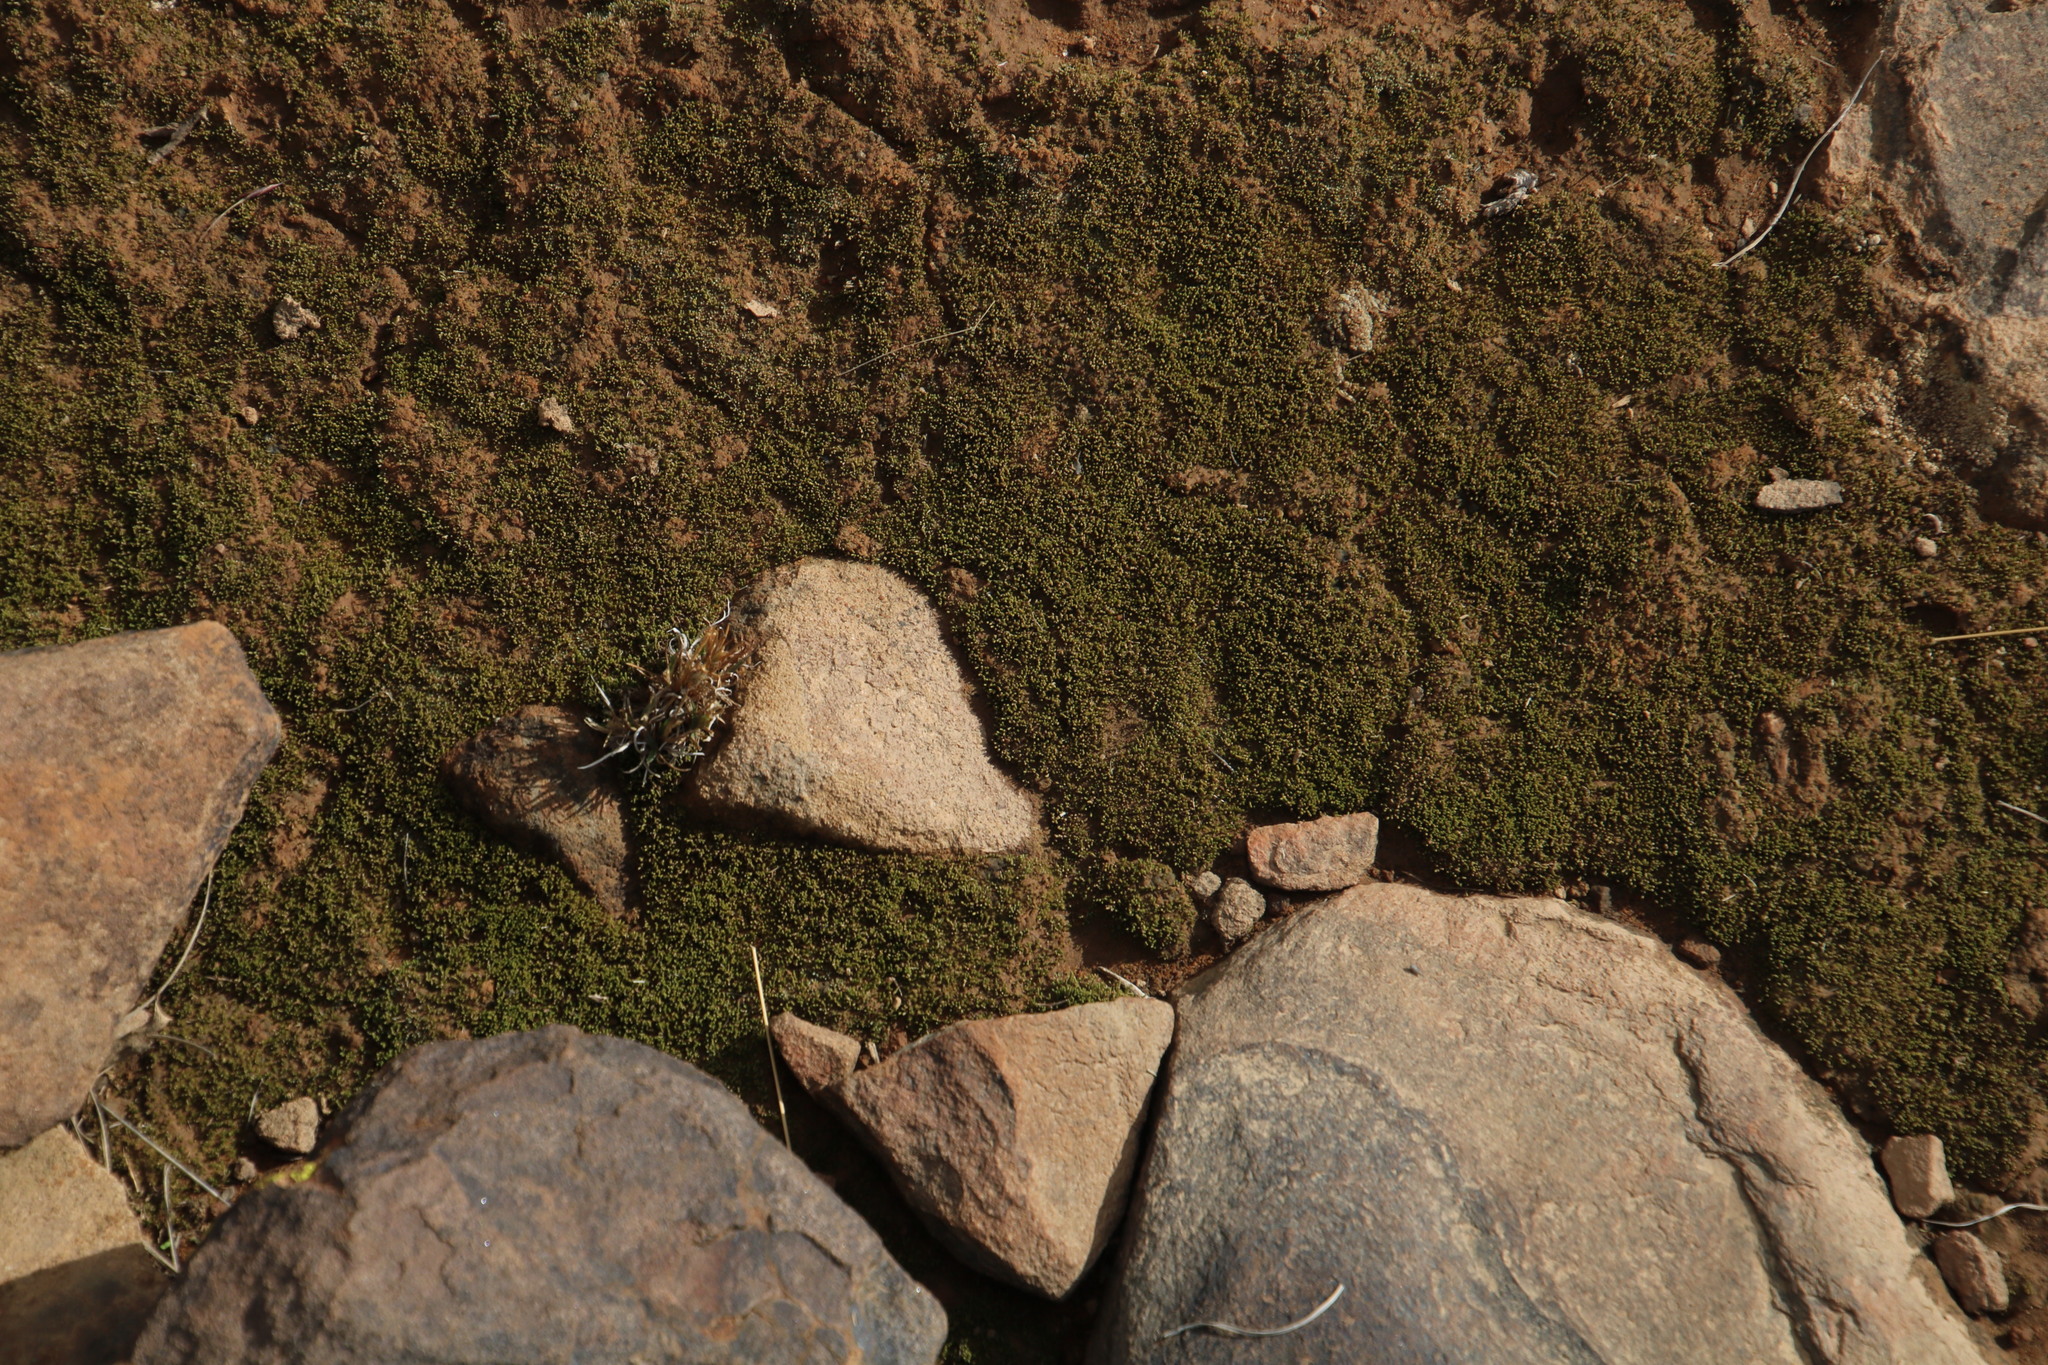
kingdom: Plantae
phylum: Bryophyta
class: Bryopsida
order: Bryales
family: Bryaceae
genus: Bryum
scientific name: Bryum argenteum
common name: Silver-moss
